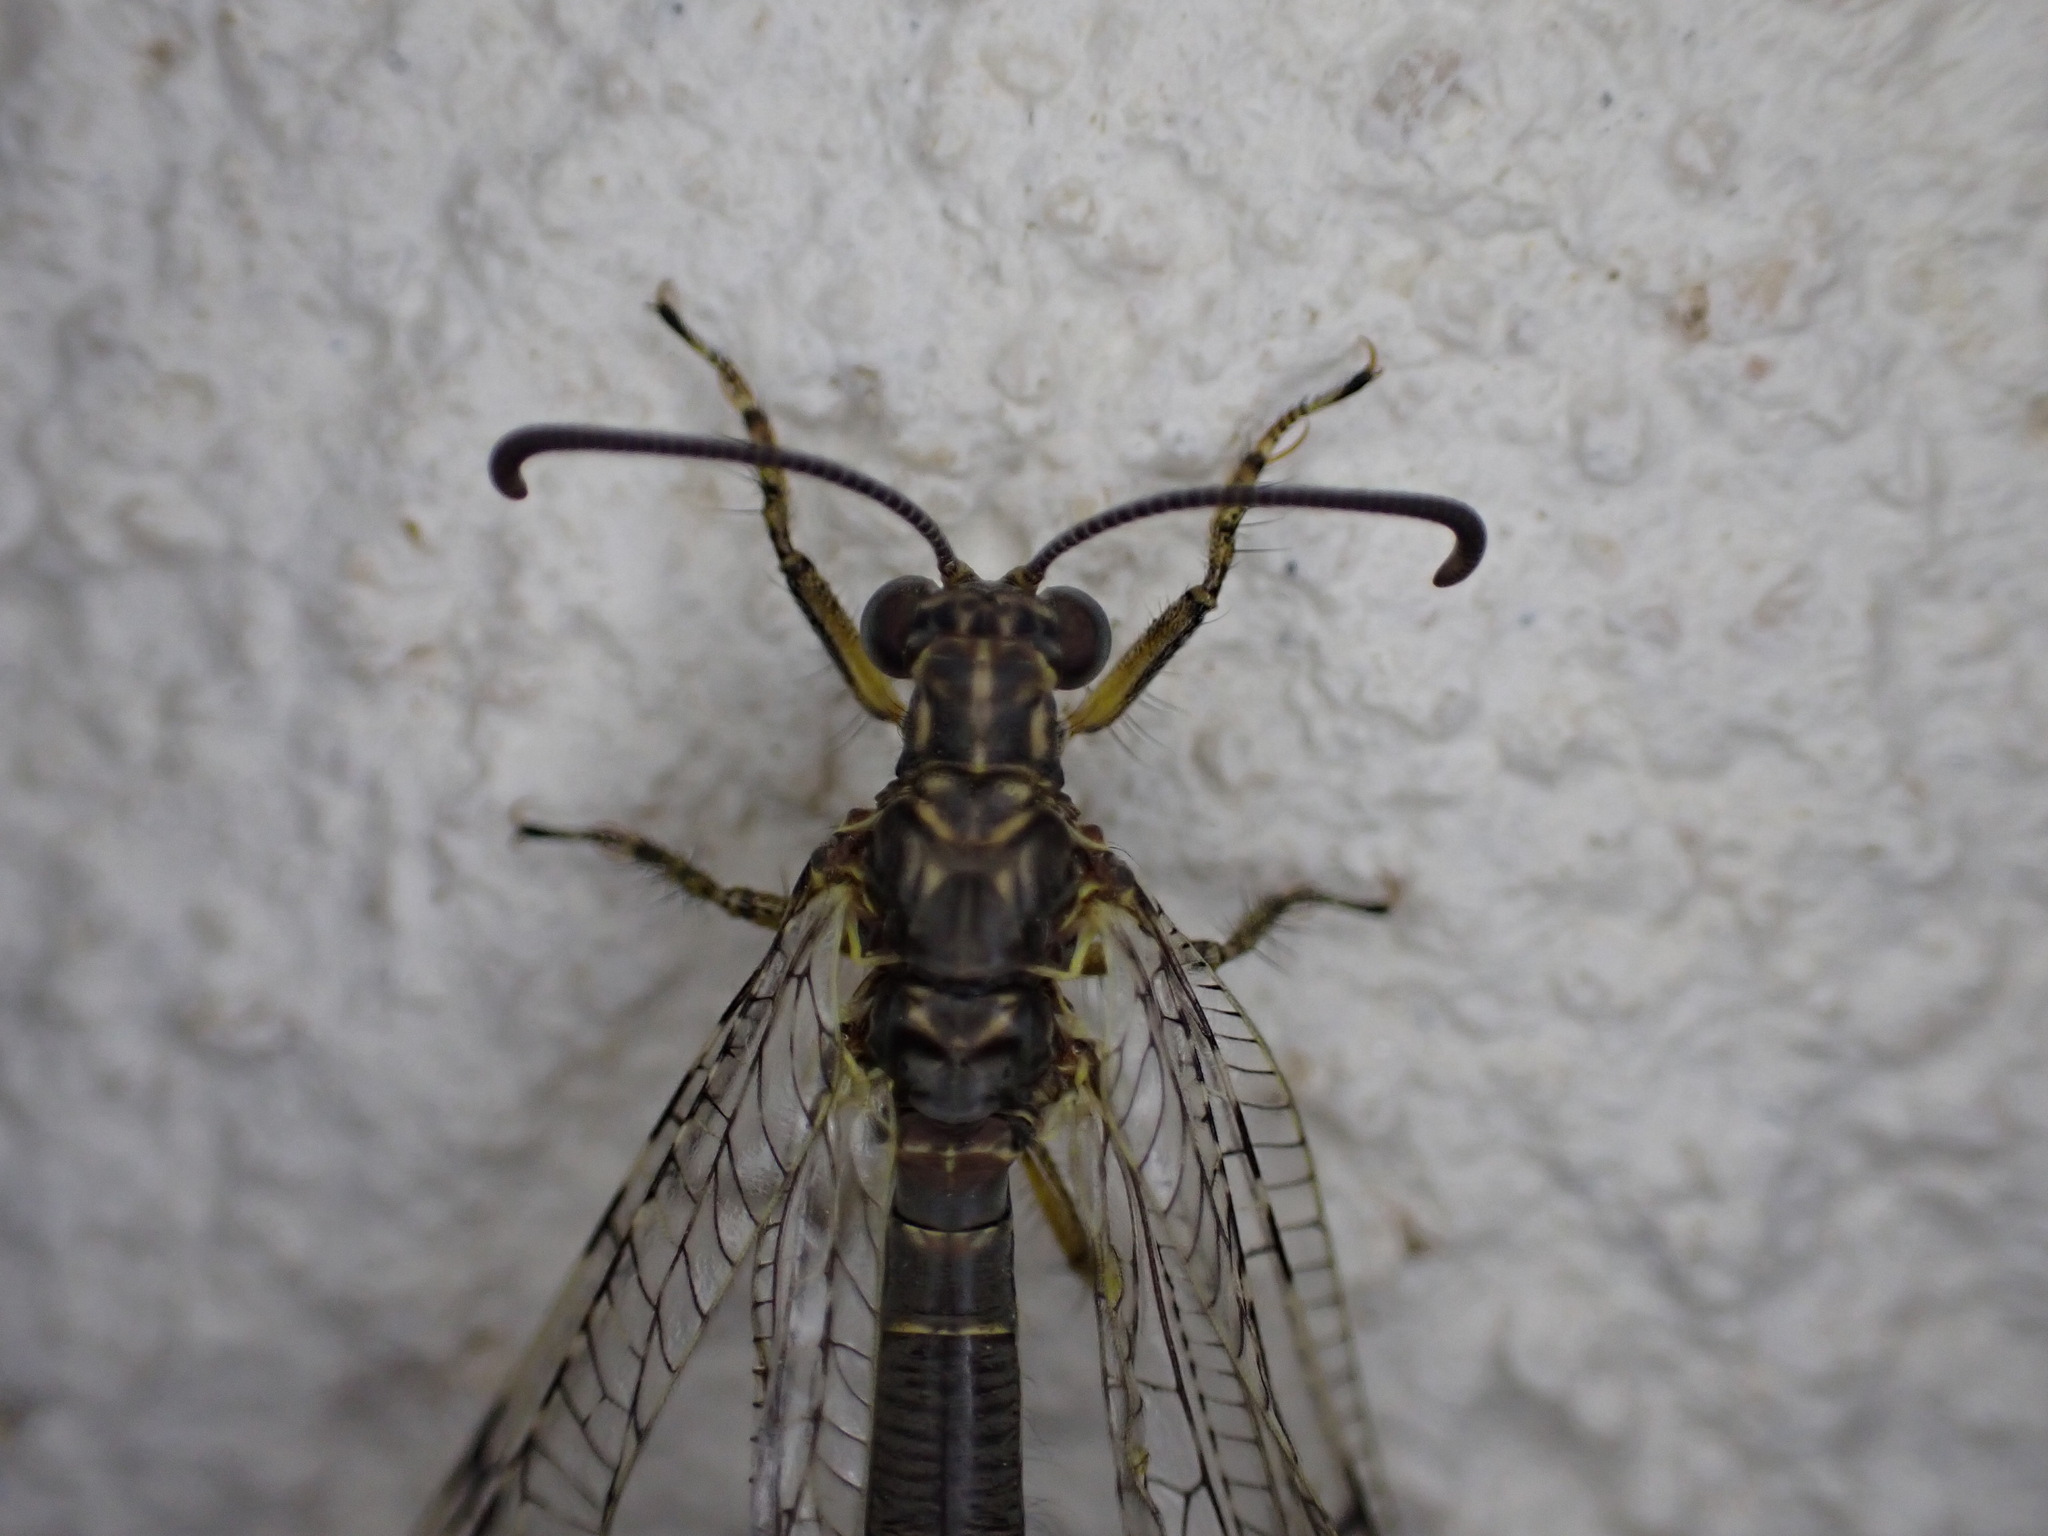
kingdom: Animalia
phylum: Arthropoda
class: Insecta
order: Neuroptera
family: Myrmeleontidae
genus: Distoleon
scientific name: Distoleon tetragrammicus
